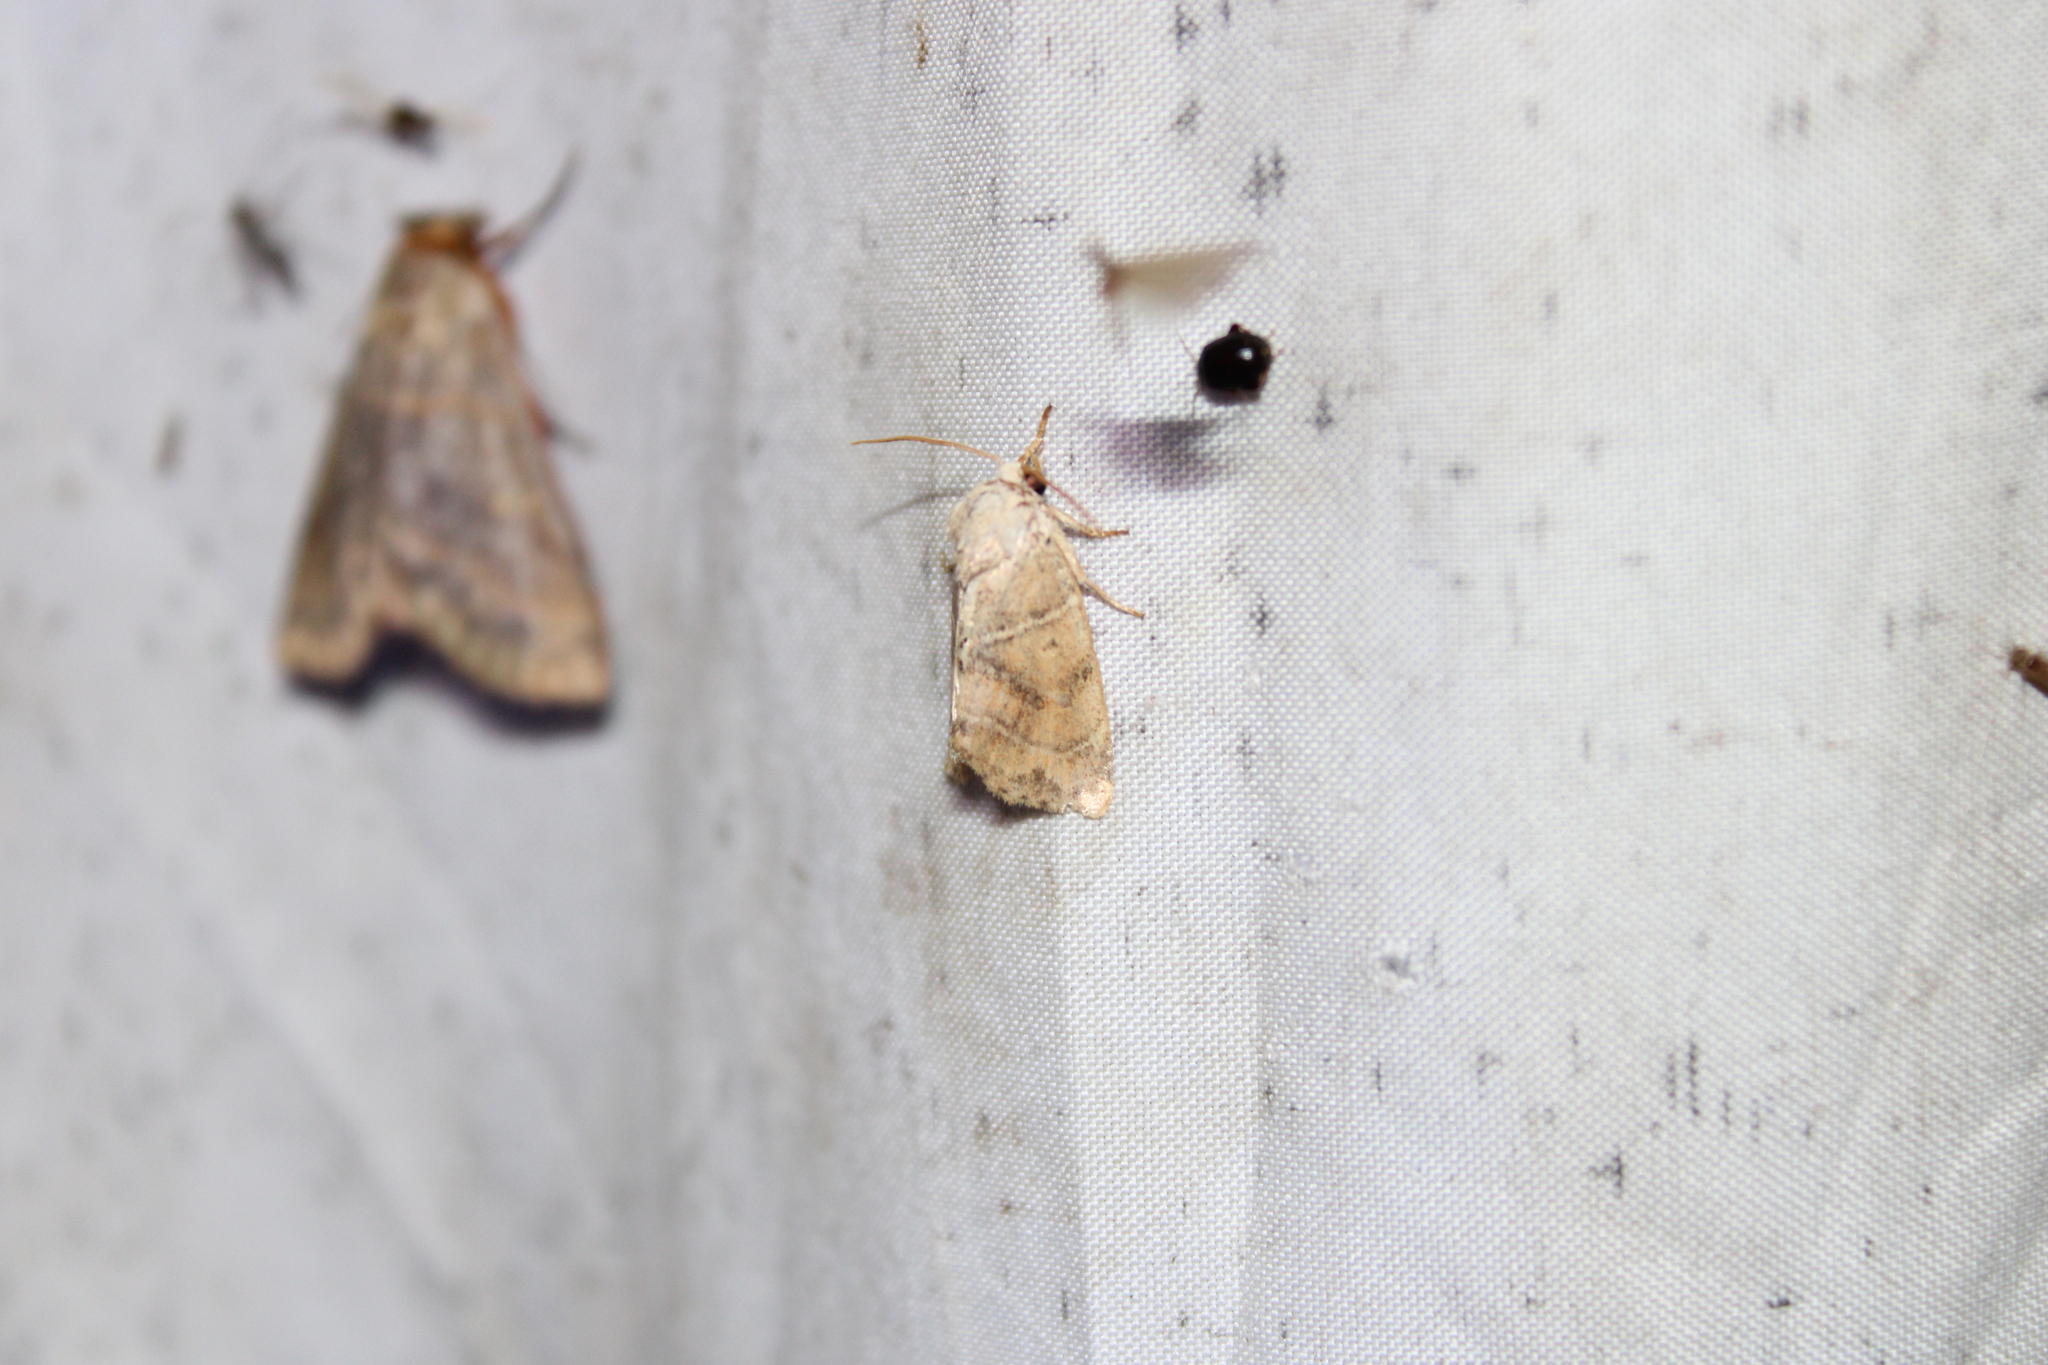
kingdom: Animalia
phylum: Arthropoda
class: Insecta
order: Lepidoptera
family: Noctuidae
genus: Cosmia
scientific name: Cosmia calami
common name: American dun-bar moth
